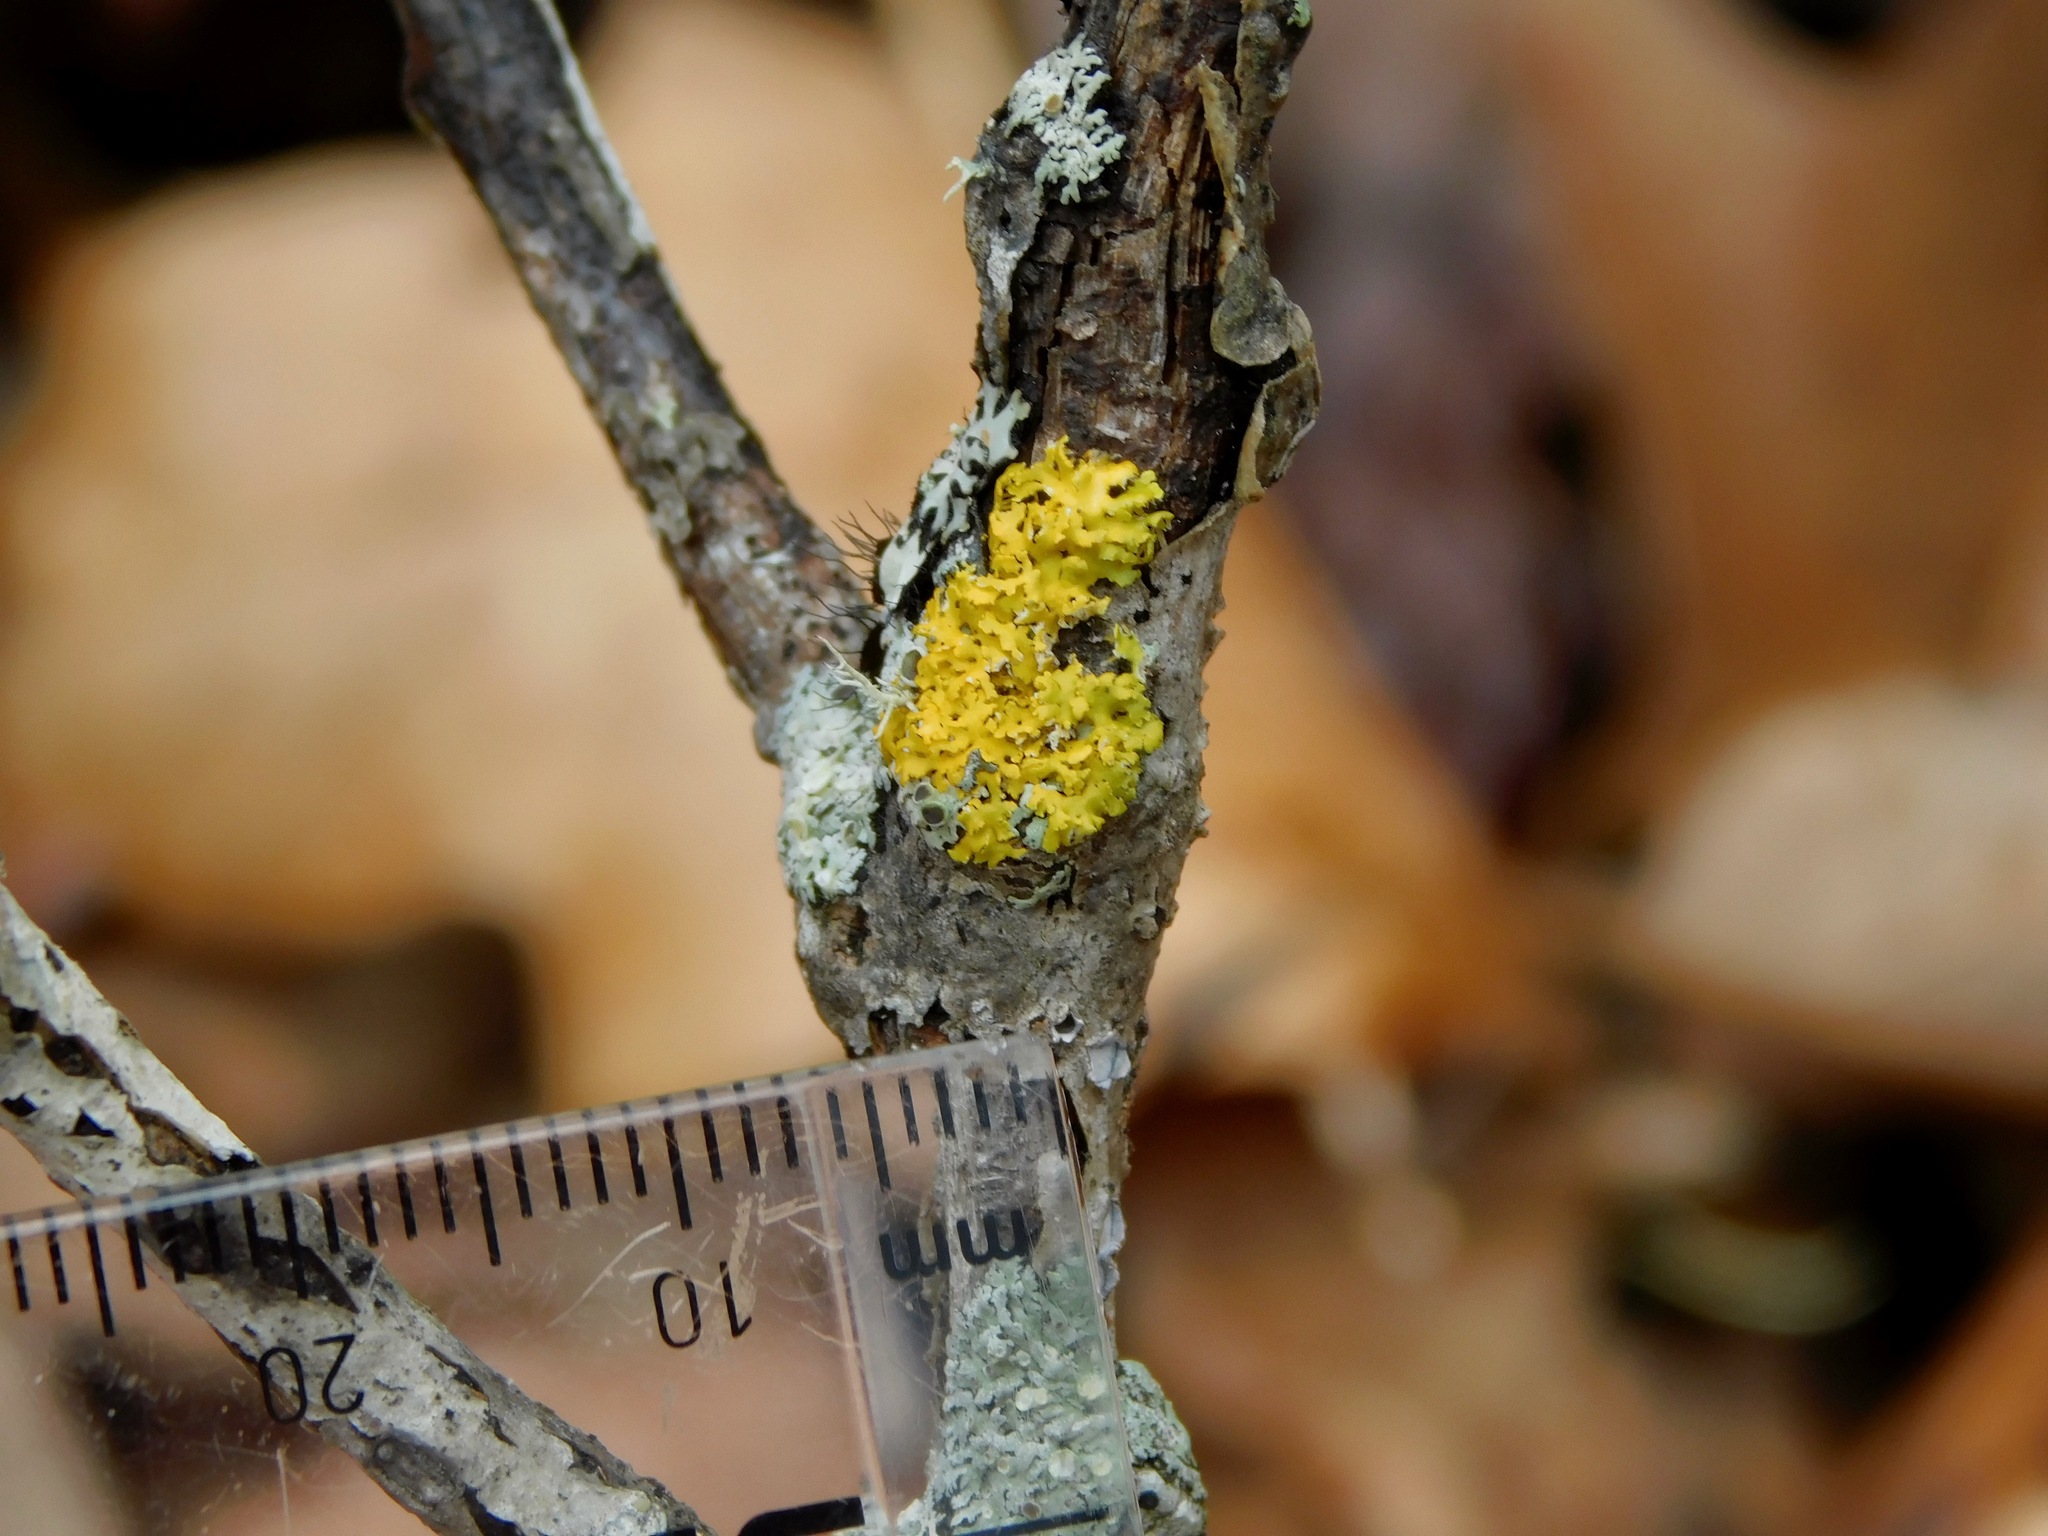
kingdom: Fungi
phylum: Ascomycota
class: Candelariomycetes
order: Candelariales
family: Candelariaceae
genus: Candelaria
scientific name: Candelaria fibrosa
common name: Fringed candleflame lichen
